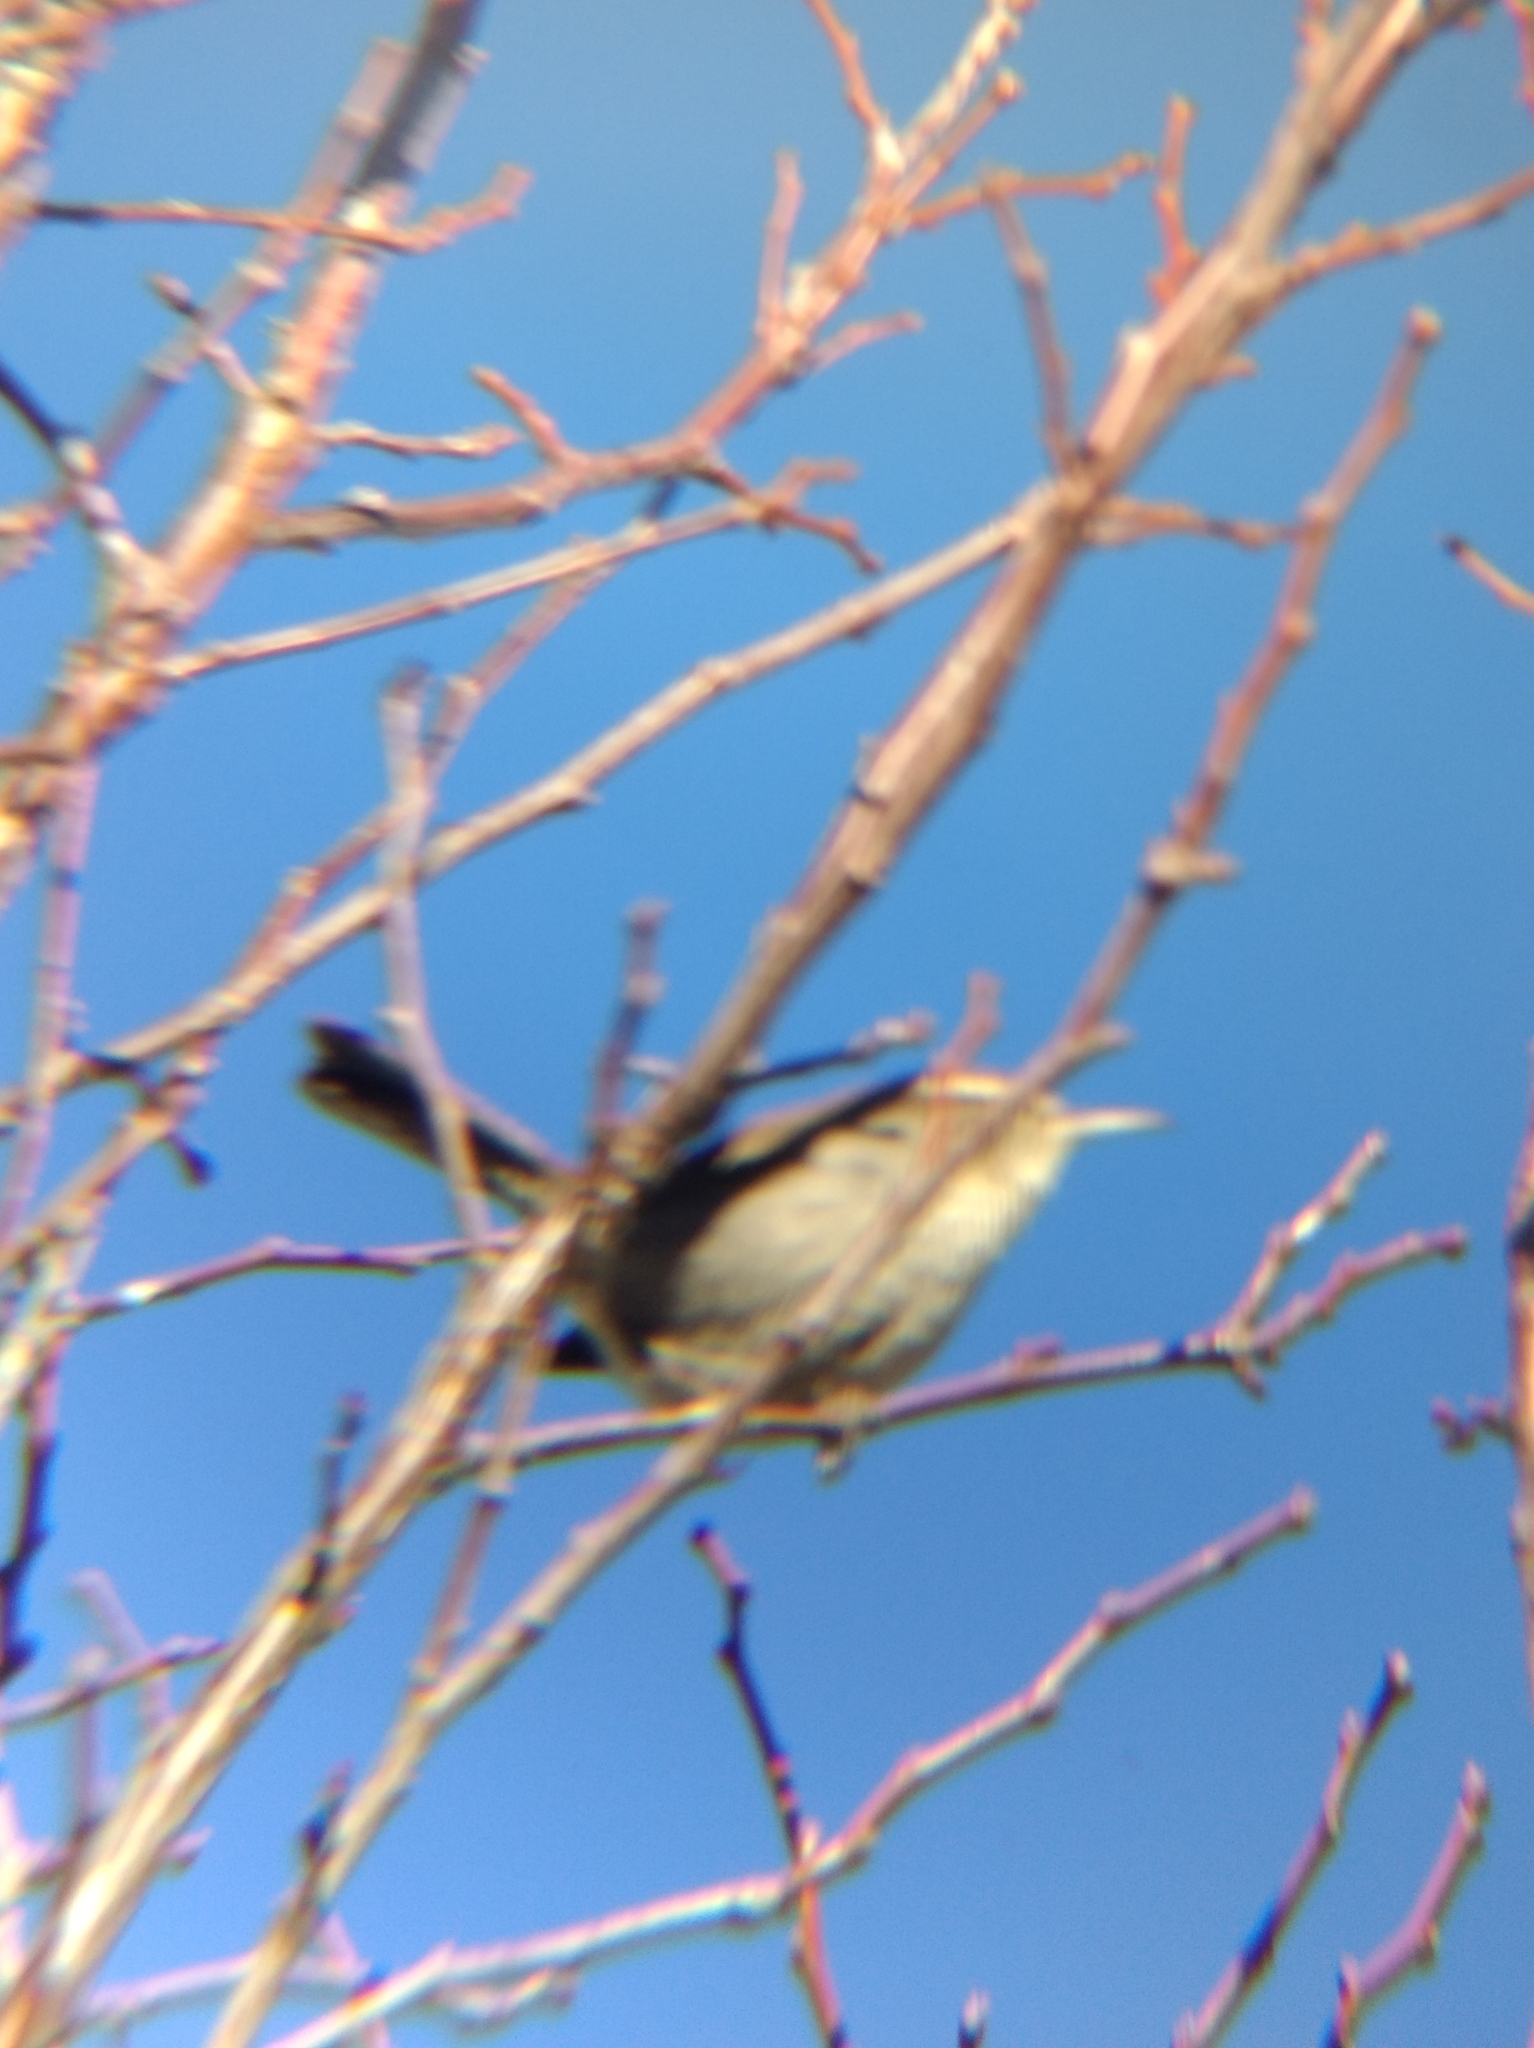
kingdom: Animalia
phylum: Chordata
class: Aves
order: Passeriformes
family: Troglodytidae
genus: Thryomanes
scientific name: Thryomanes bewickii
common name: Bewick's wren
